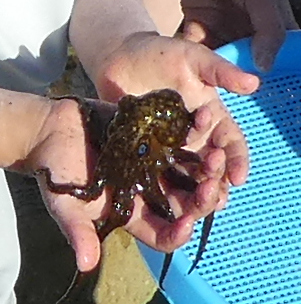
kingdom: Animalia
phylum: Mollusca
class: Cephalopoda
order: Octopoda
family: Octopodidae
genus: Octopus
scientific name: Octopus bimaculoides
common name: California two-spot octopus
